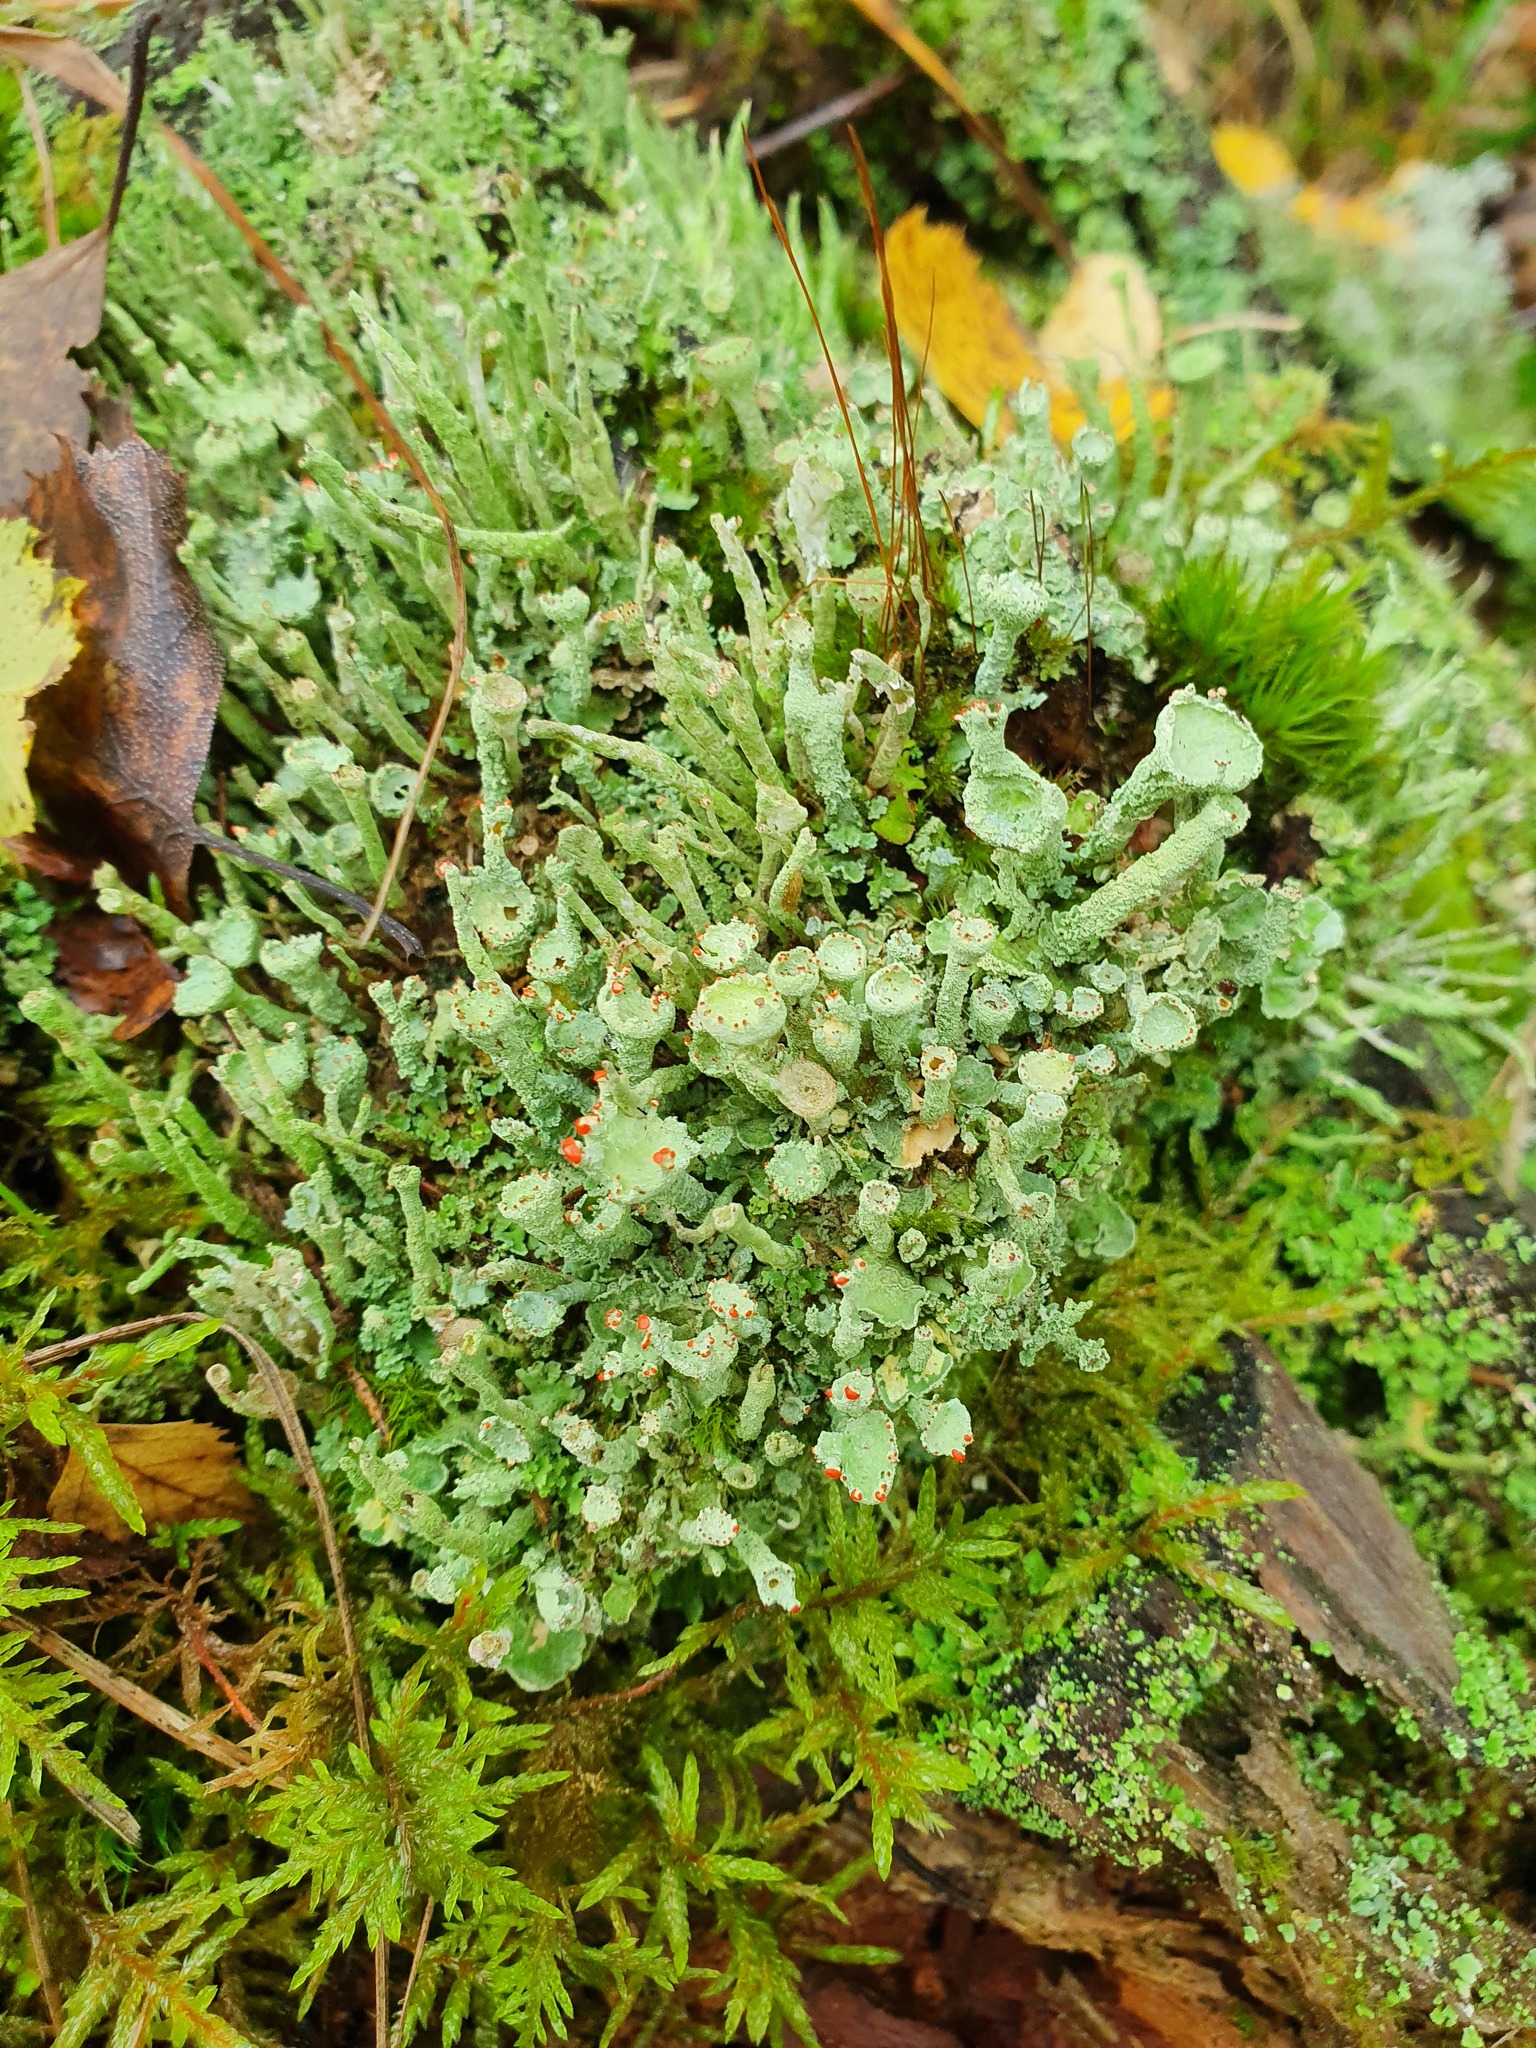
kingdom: Fungi
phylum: Ascomycota
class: Lecanoromycetes
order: Lecanorales
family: Cladoniaceae
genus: Cladonia
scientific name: Cladonia digitata
